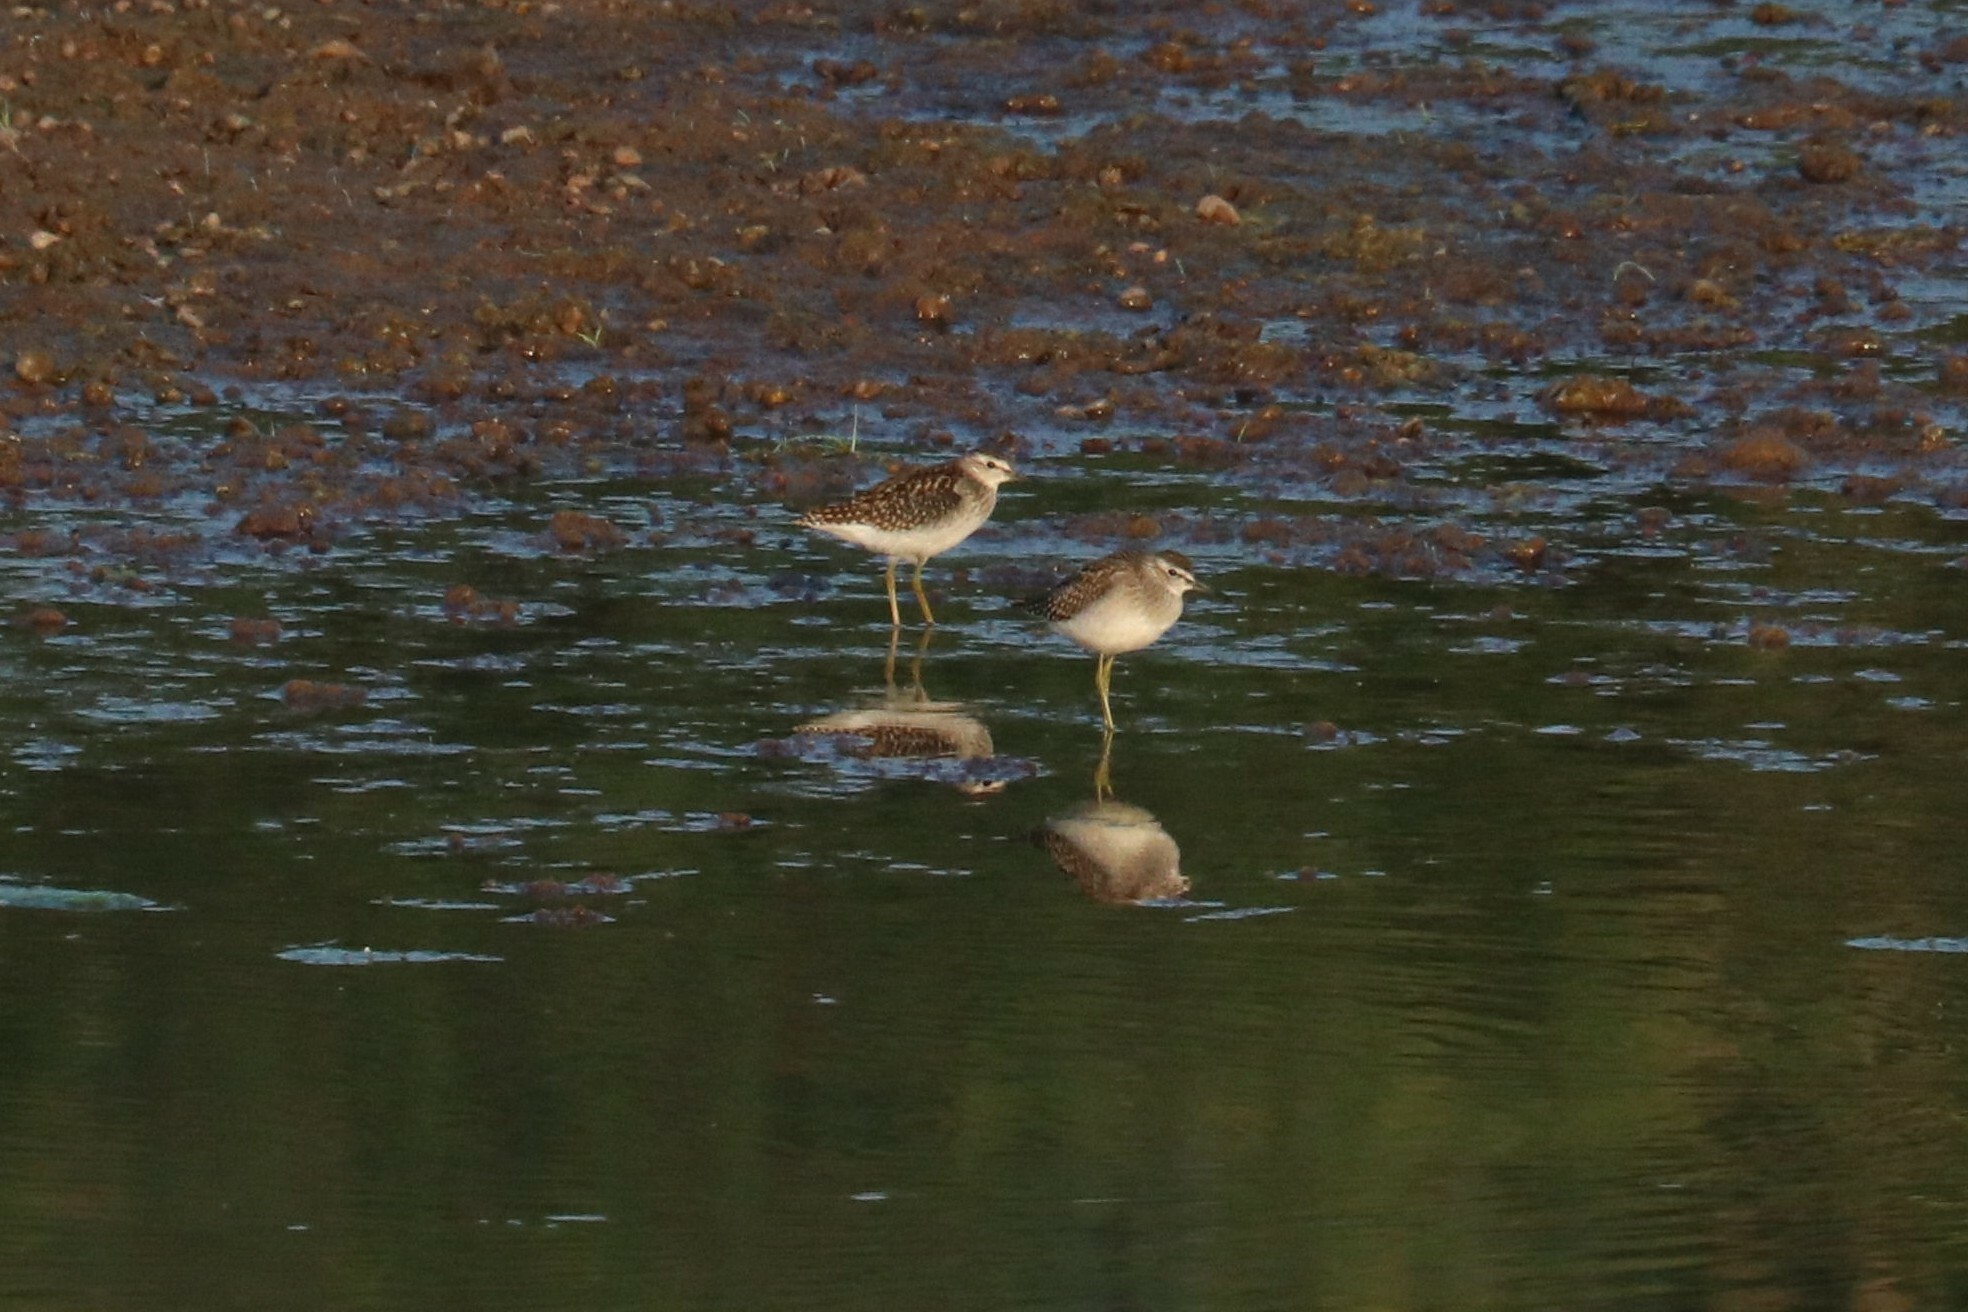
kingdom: Animalia
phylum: Chordata
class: Aves
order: Charadriiformes
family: Scolopacidae
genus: Tringa
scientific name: Tringa glareola
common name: Wood sandpiper
